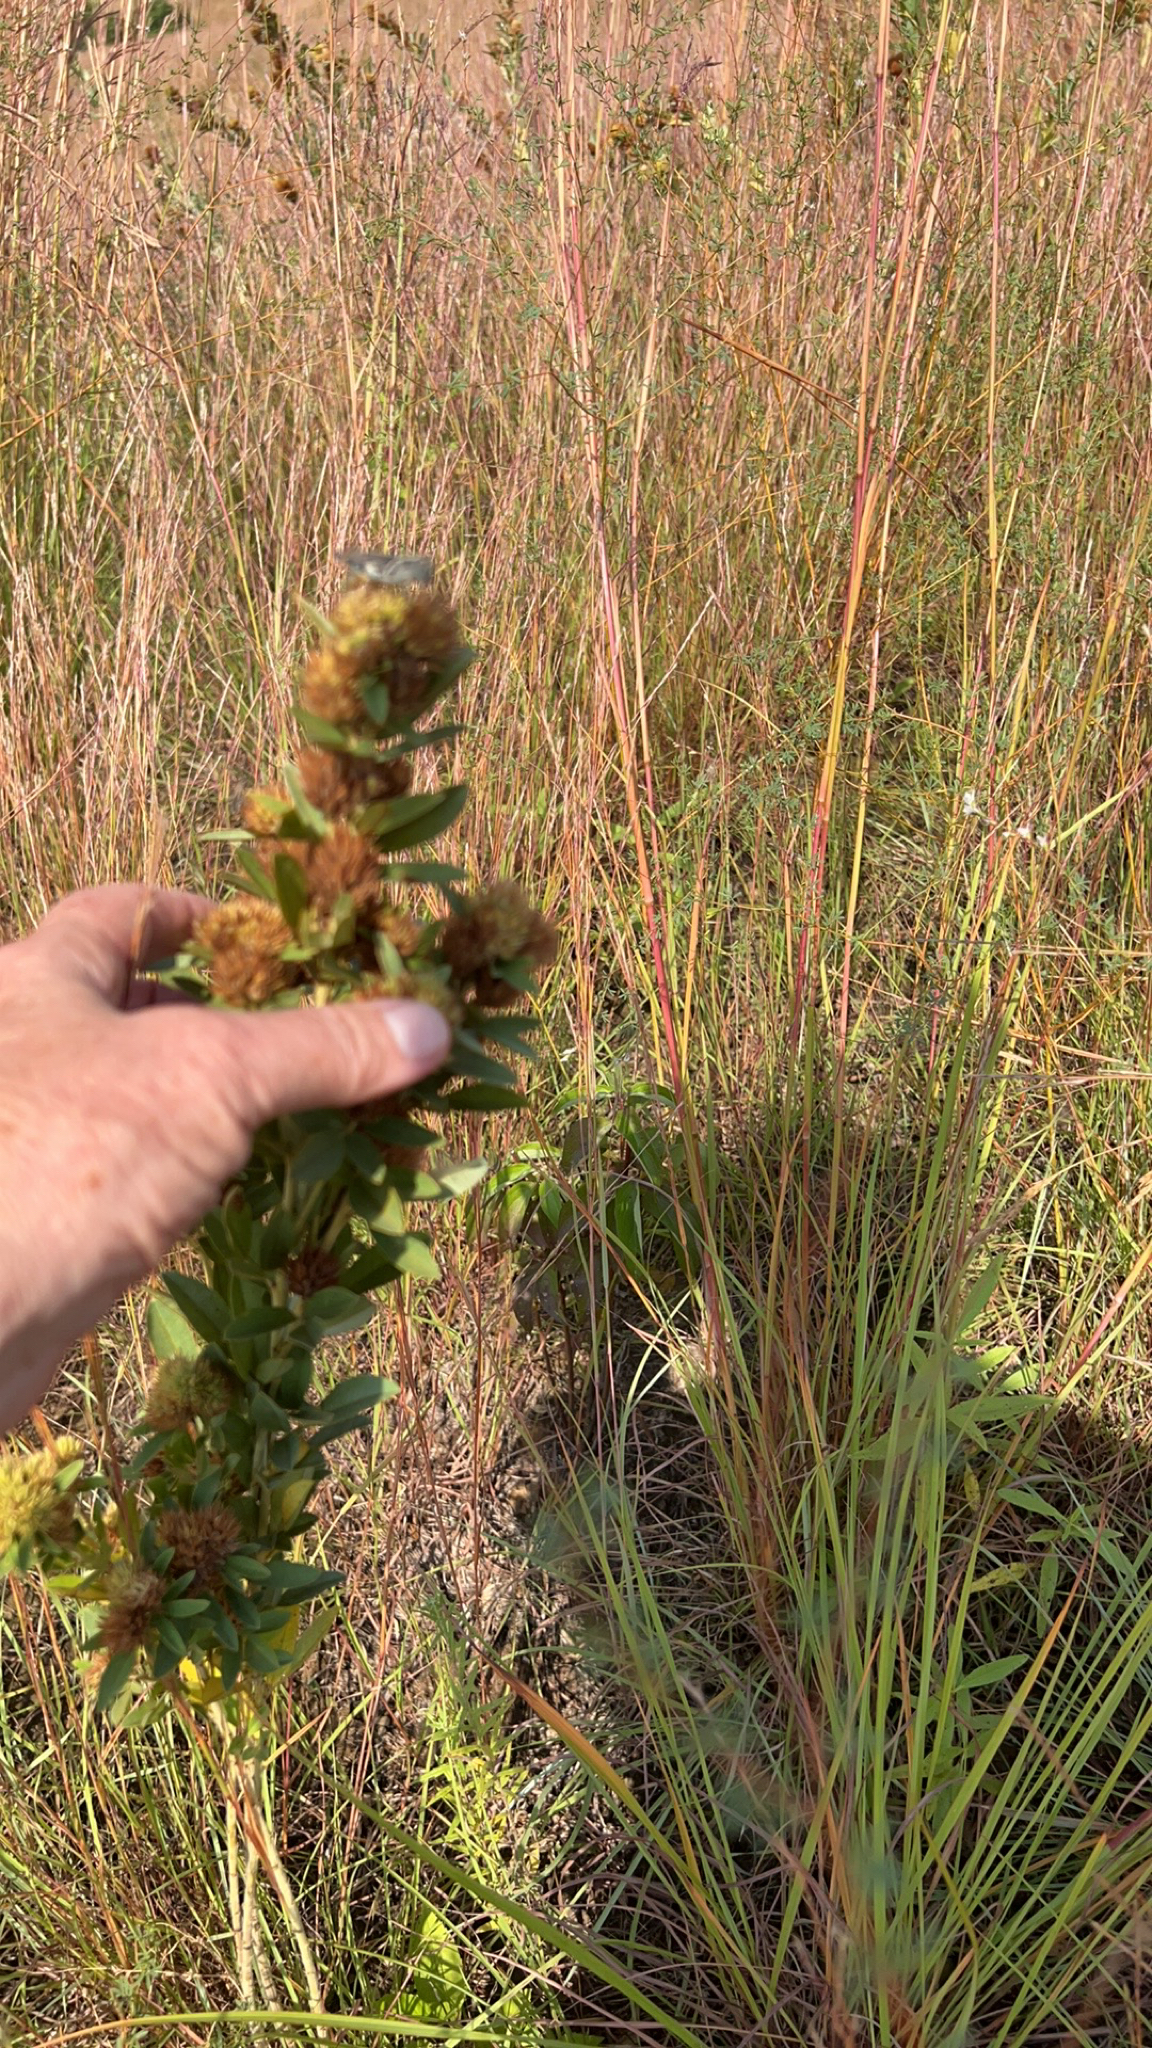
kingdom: Plantae
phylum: Tracheophyta
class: Magnoliopsida
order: Fabales
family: Fabaceae
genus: Lespedeza
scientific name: Lespedeza capitata
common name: Dusty clover
